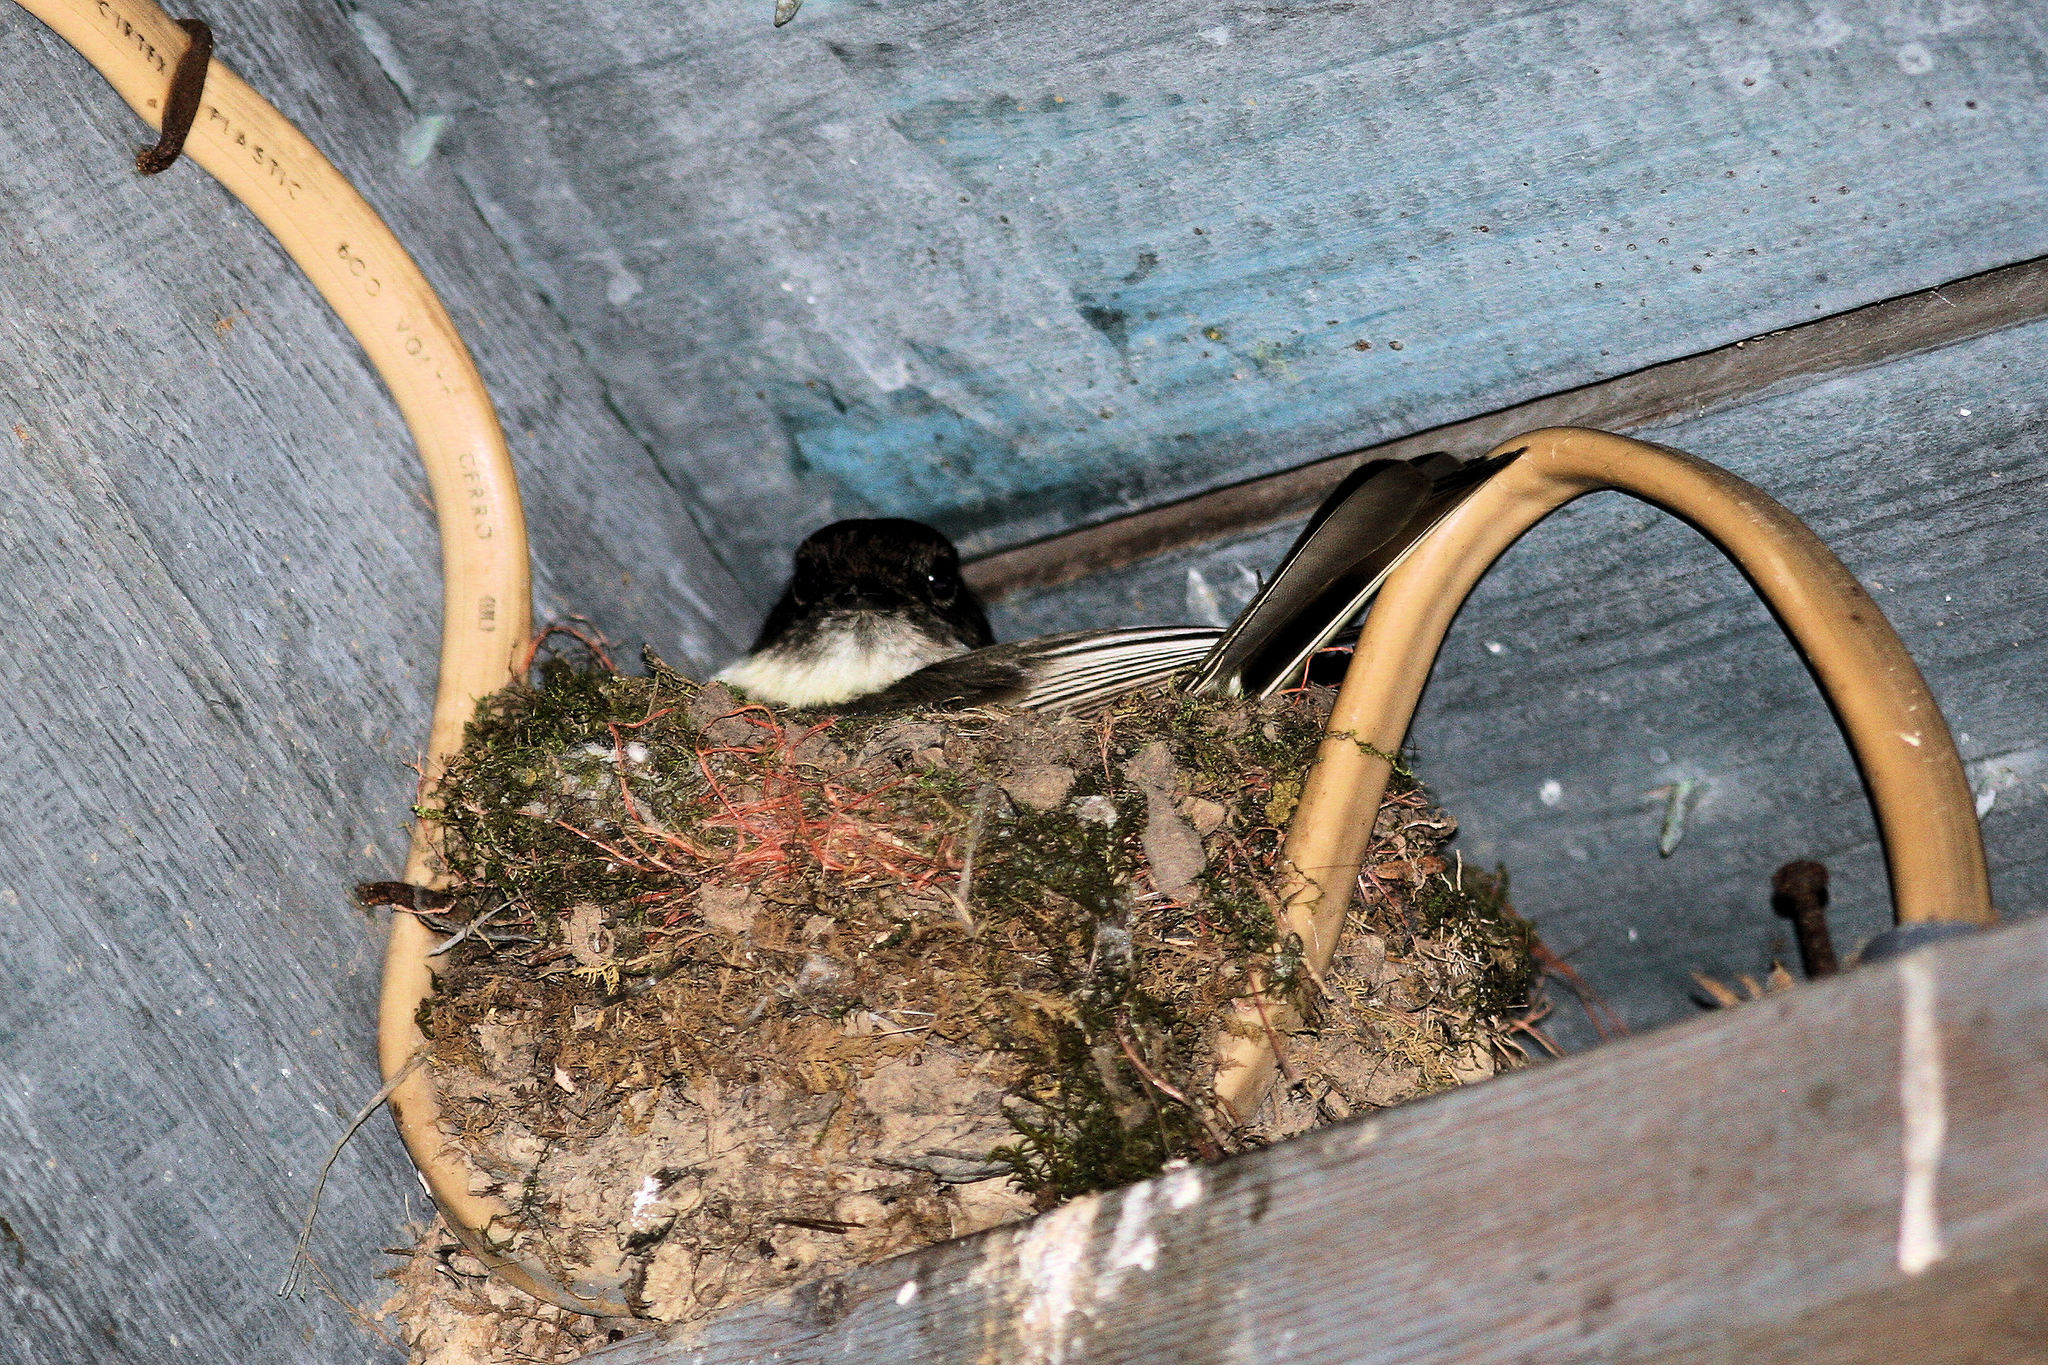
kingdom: Animalia
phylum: Chordata
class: Aves
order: Passeriformes
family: Tyrannidae
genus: Sayornis
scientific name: Sayornis phoebe
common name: Eastern phoebe
